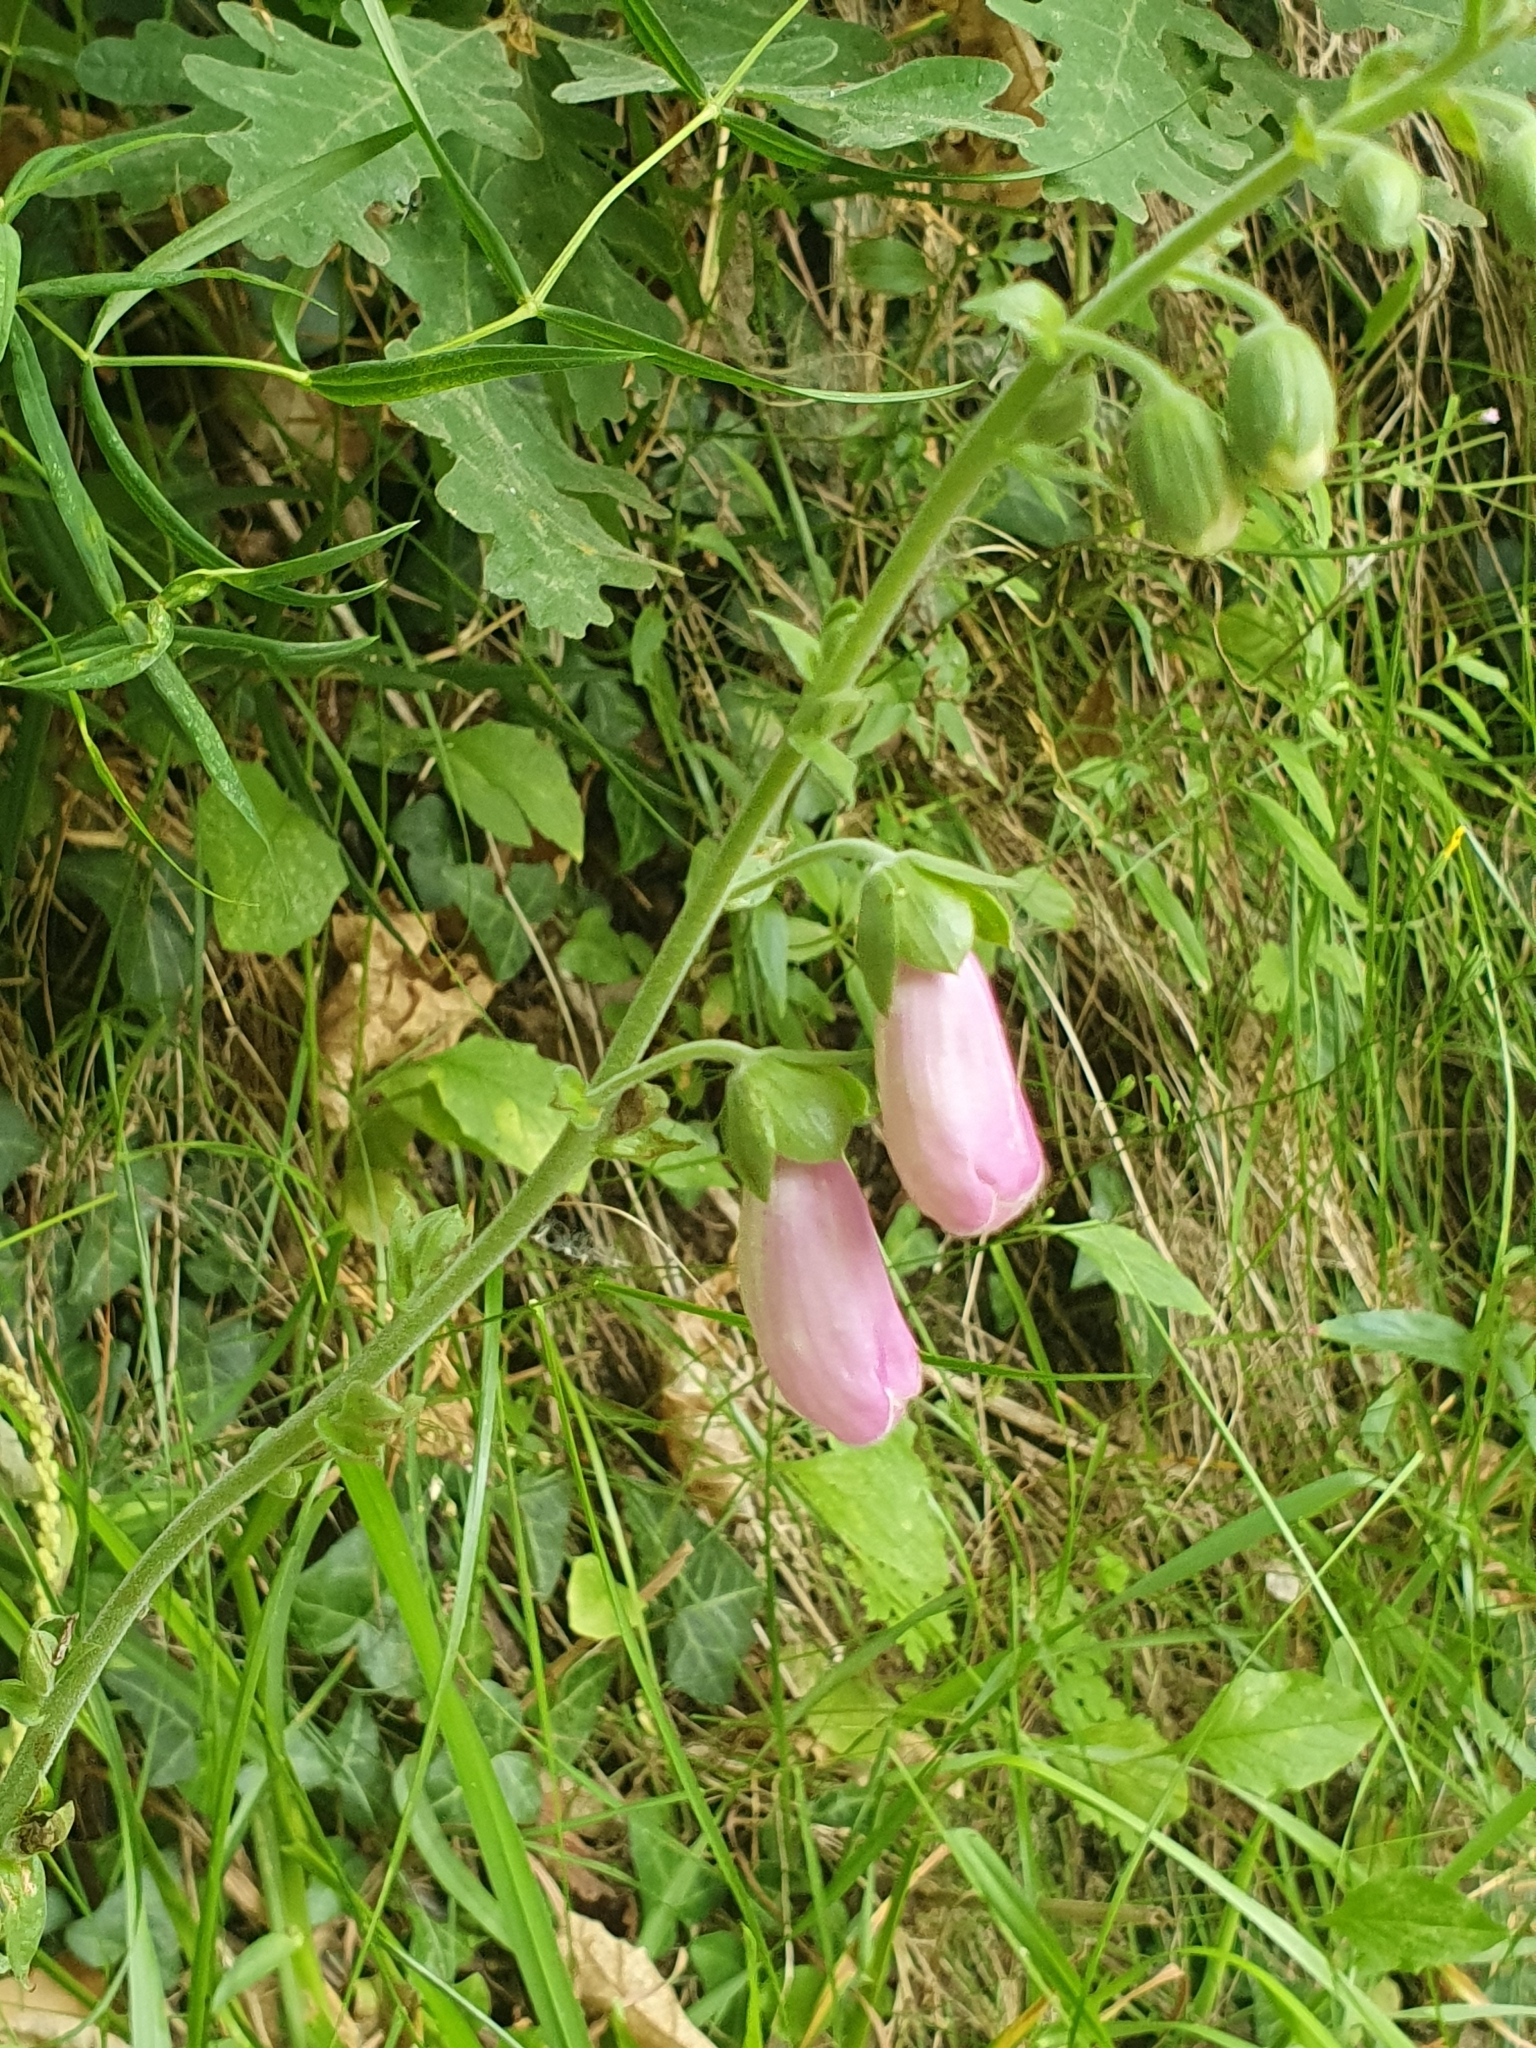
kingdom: Plantae
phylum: Tracheophyta
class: Magnoliopsida
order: Lamiales
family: Plantaginaceae
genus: Digitalis
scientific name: Digitalis purpurea
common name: Foxglove
